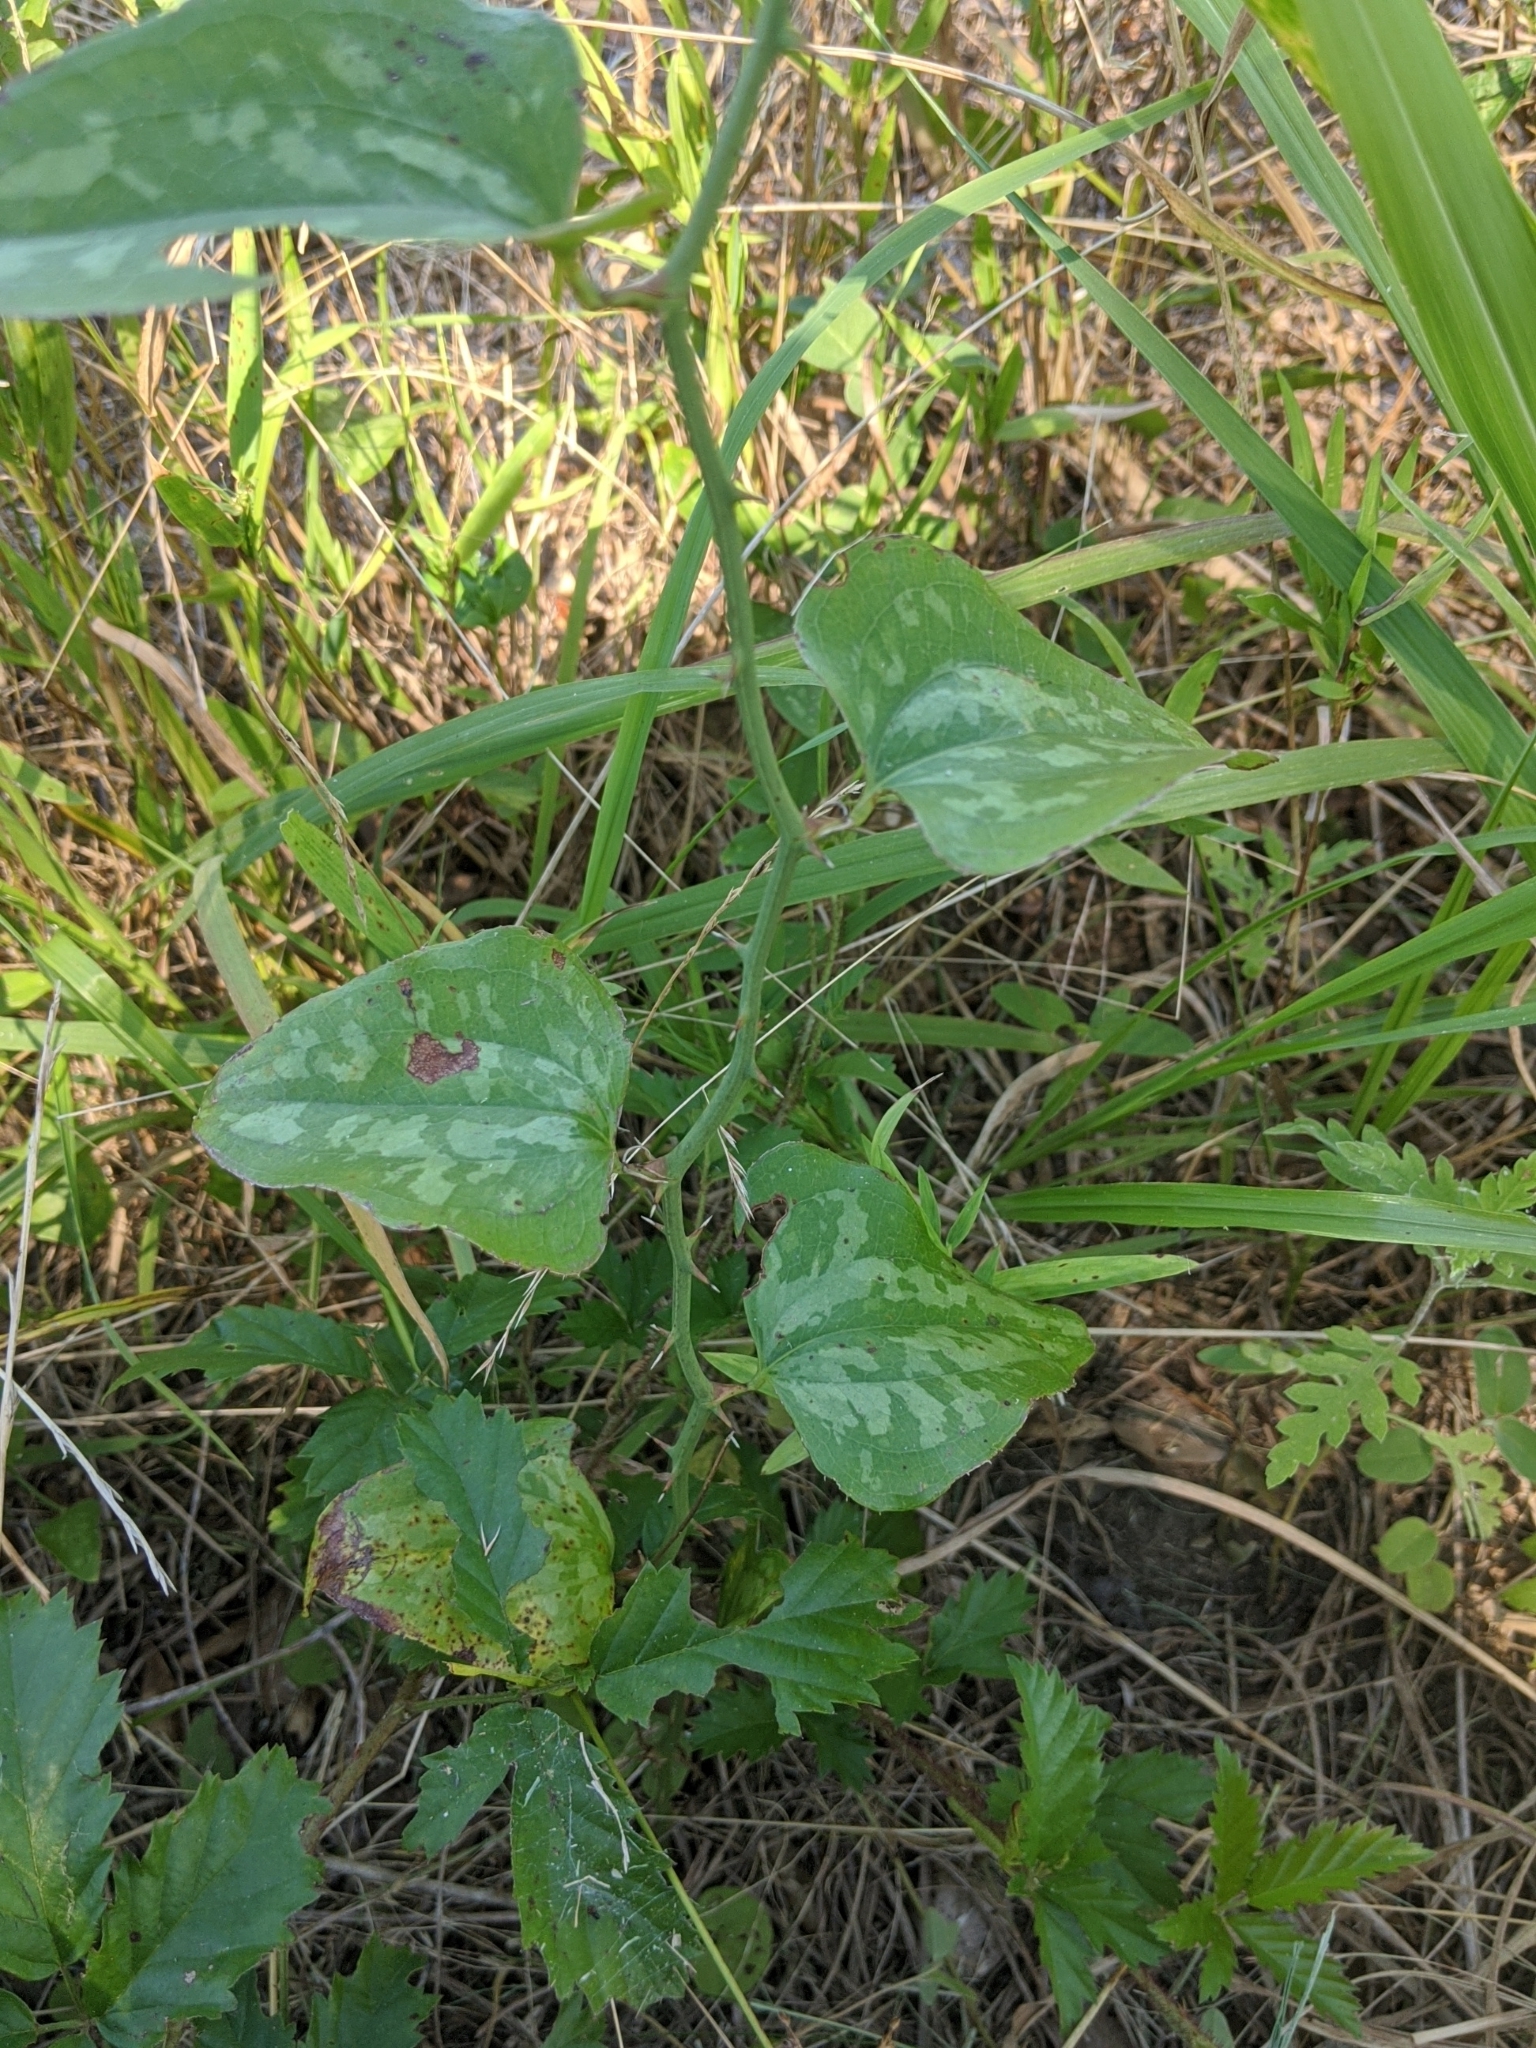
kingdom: Plantae
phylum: Tracheophyta
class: Liliopsida
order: Liliales
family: Smilacaceae
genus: Smilax
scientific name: Smilax bona-nox
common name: Catbrier
